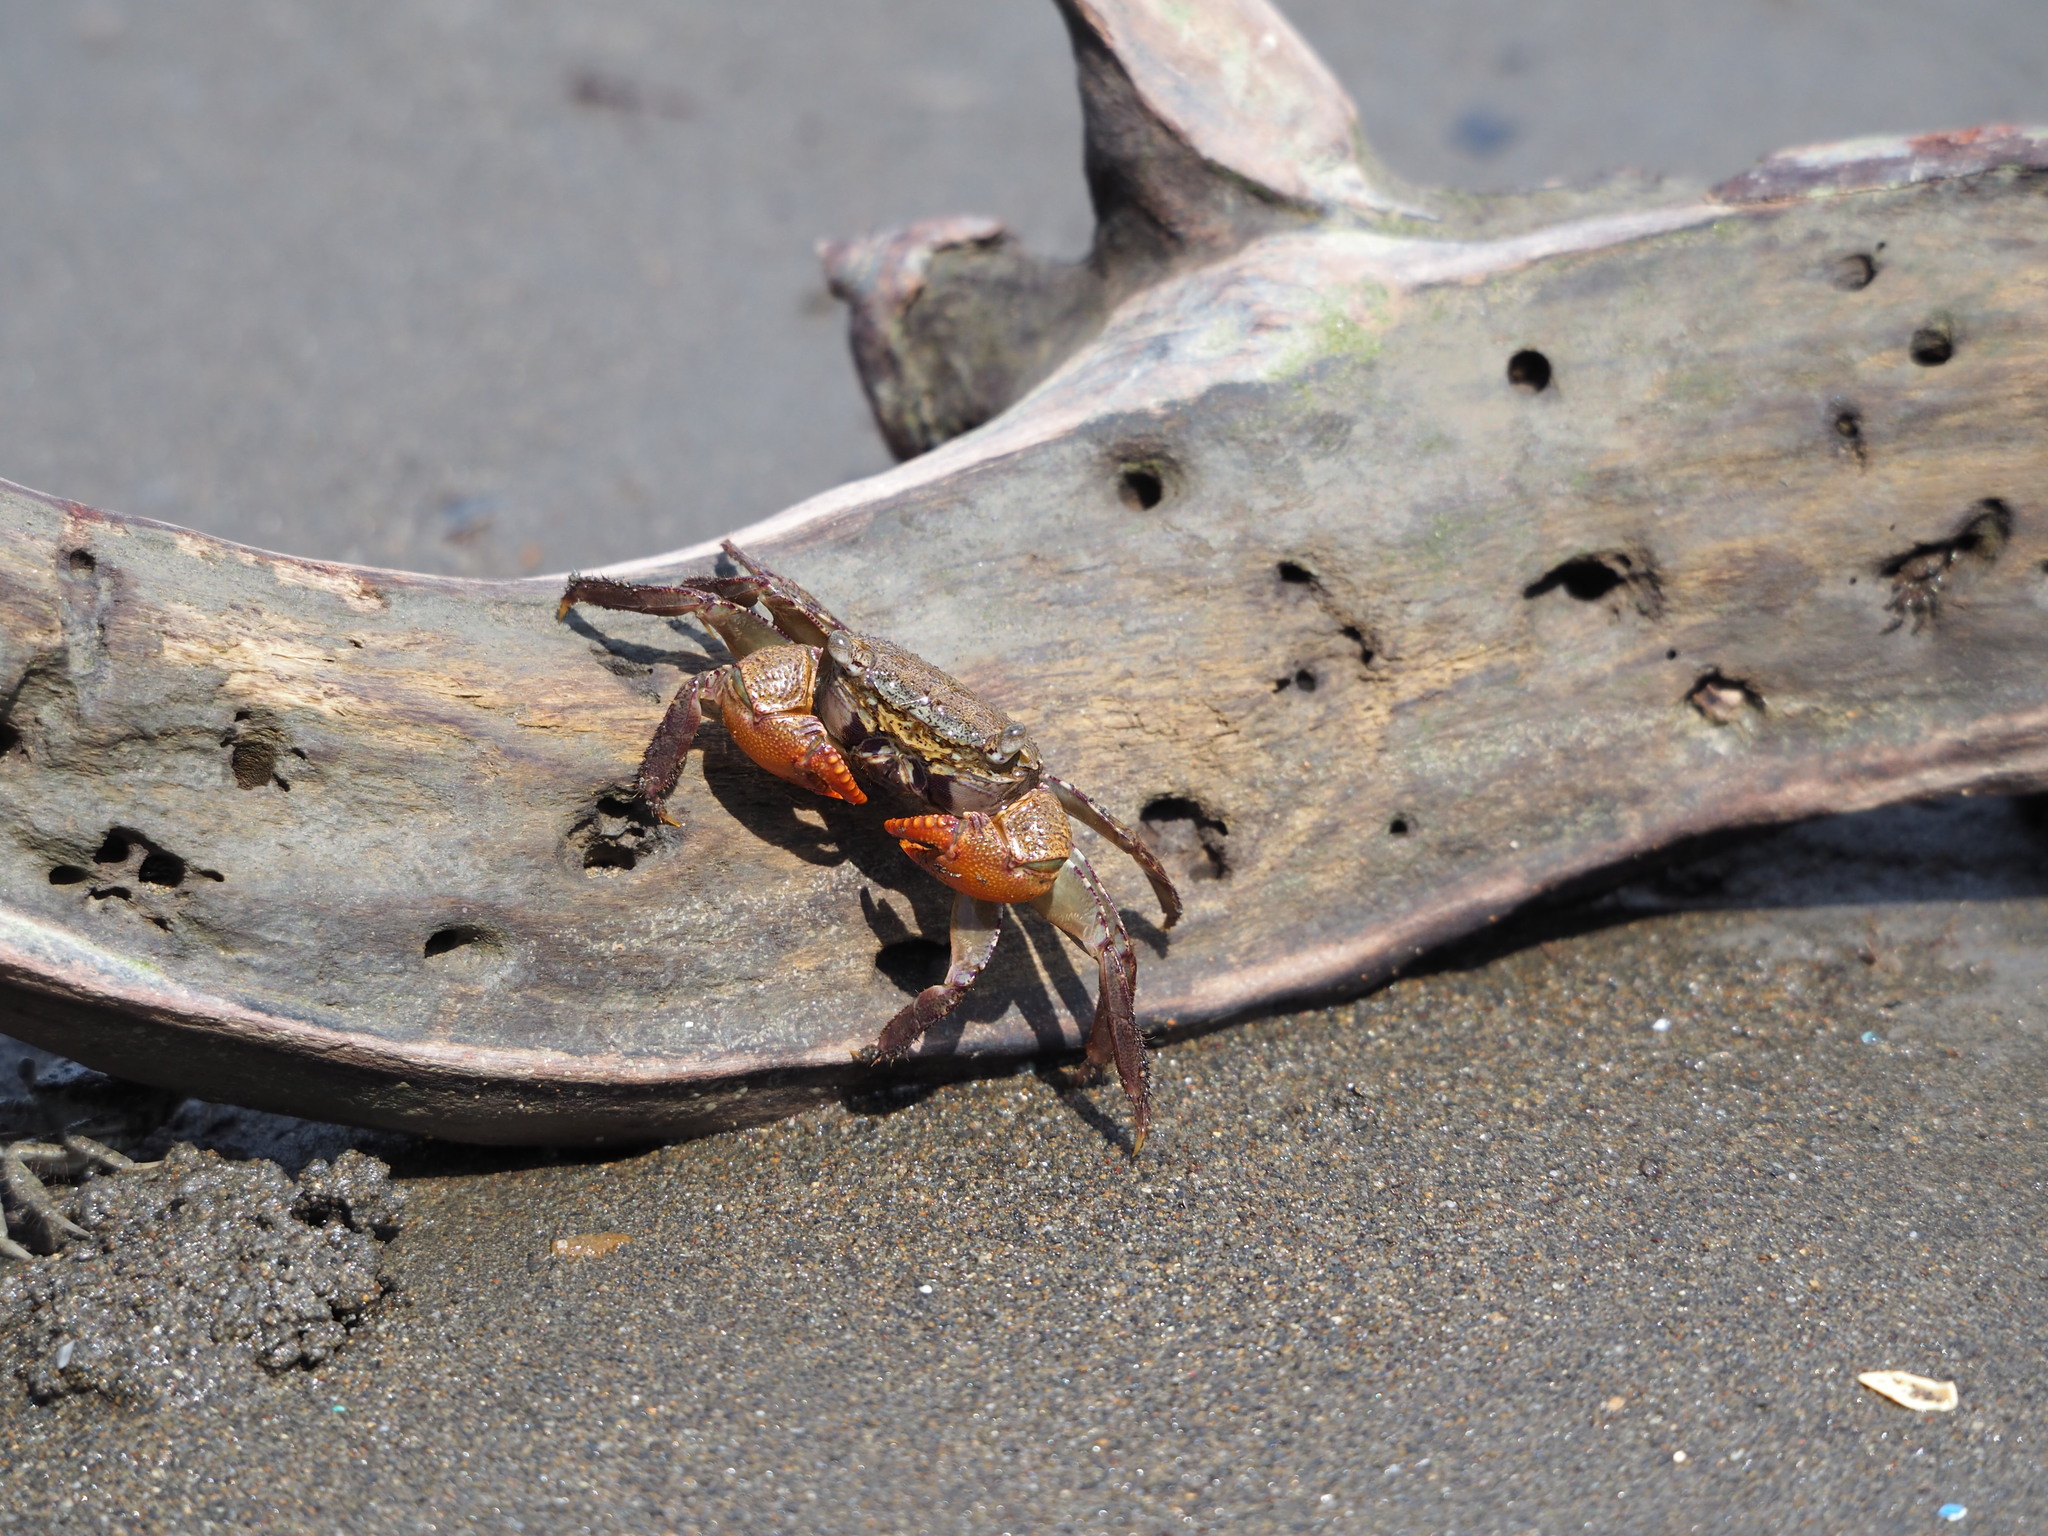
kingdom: Animalia
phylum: Arthropoda
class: Malacostraca
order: Decapoda
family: Sesarmidae
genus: Parasesarma
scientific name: Parasesarma bidens
